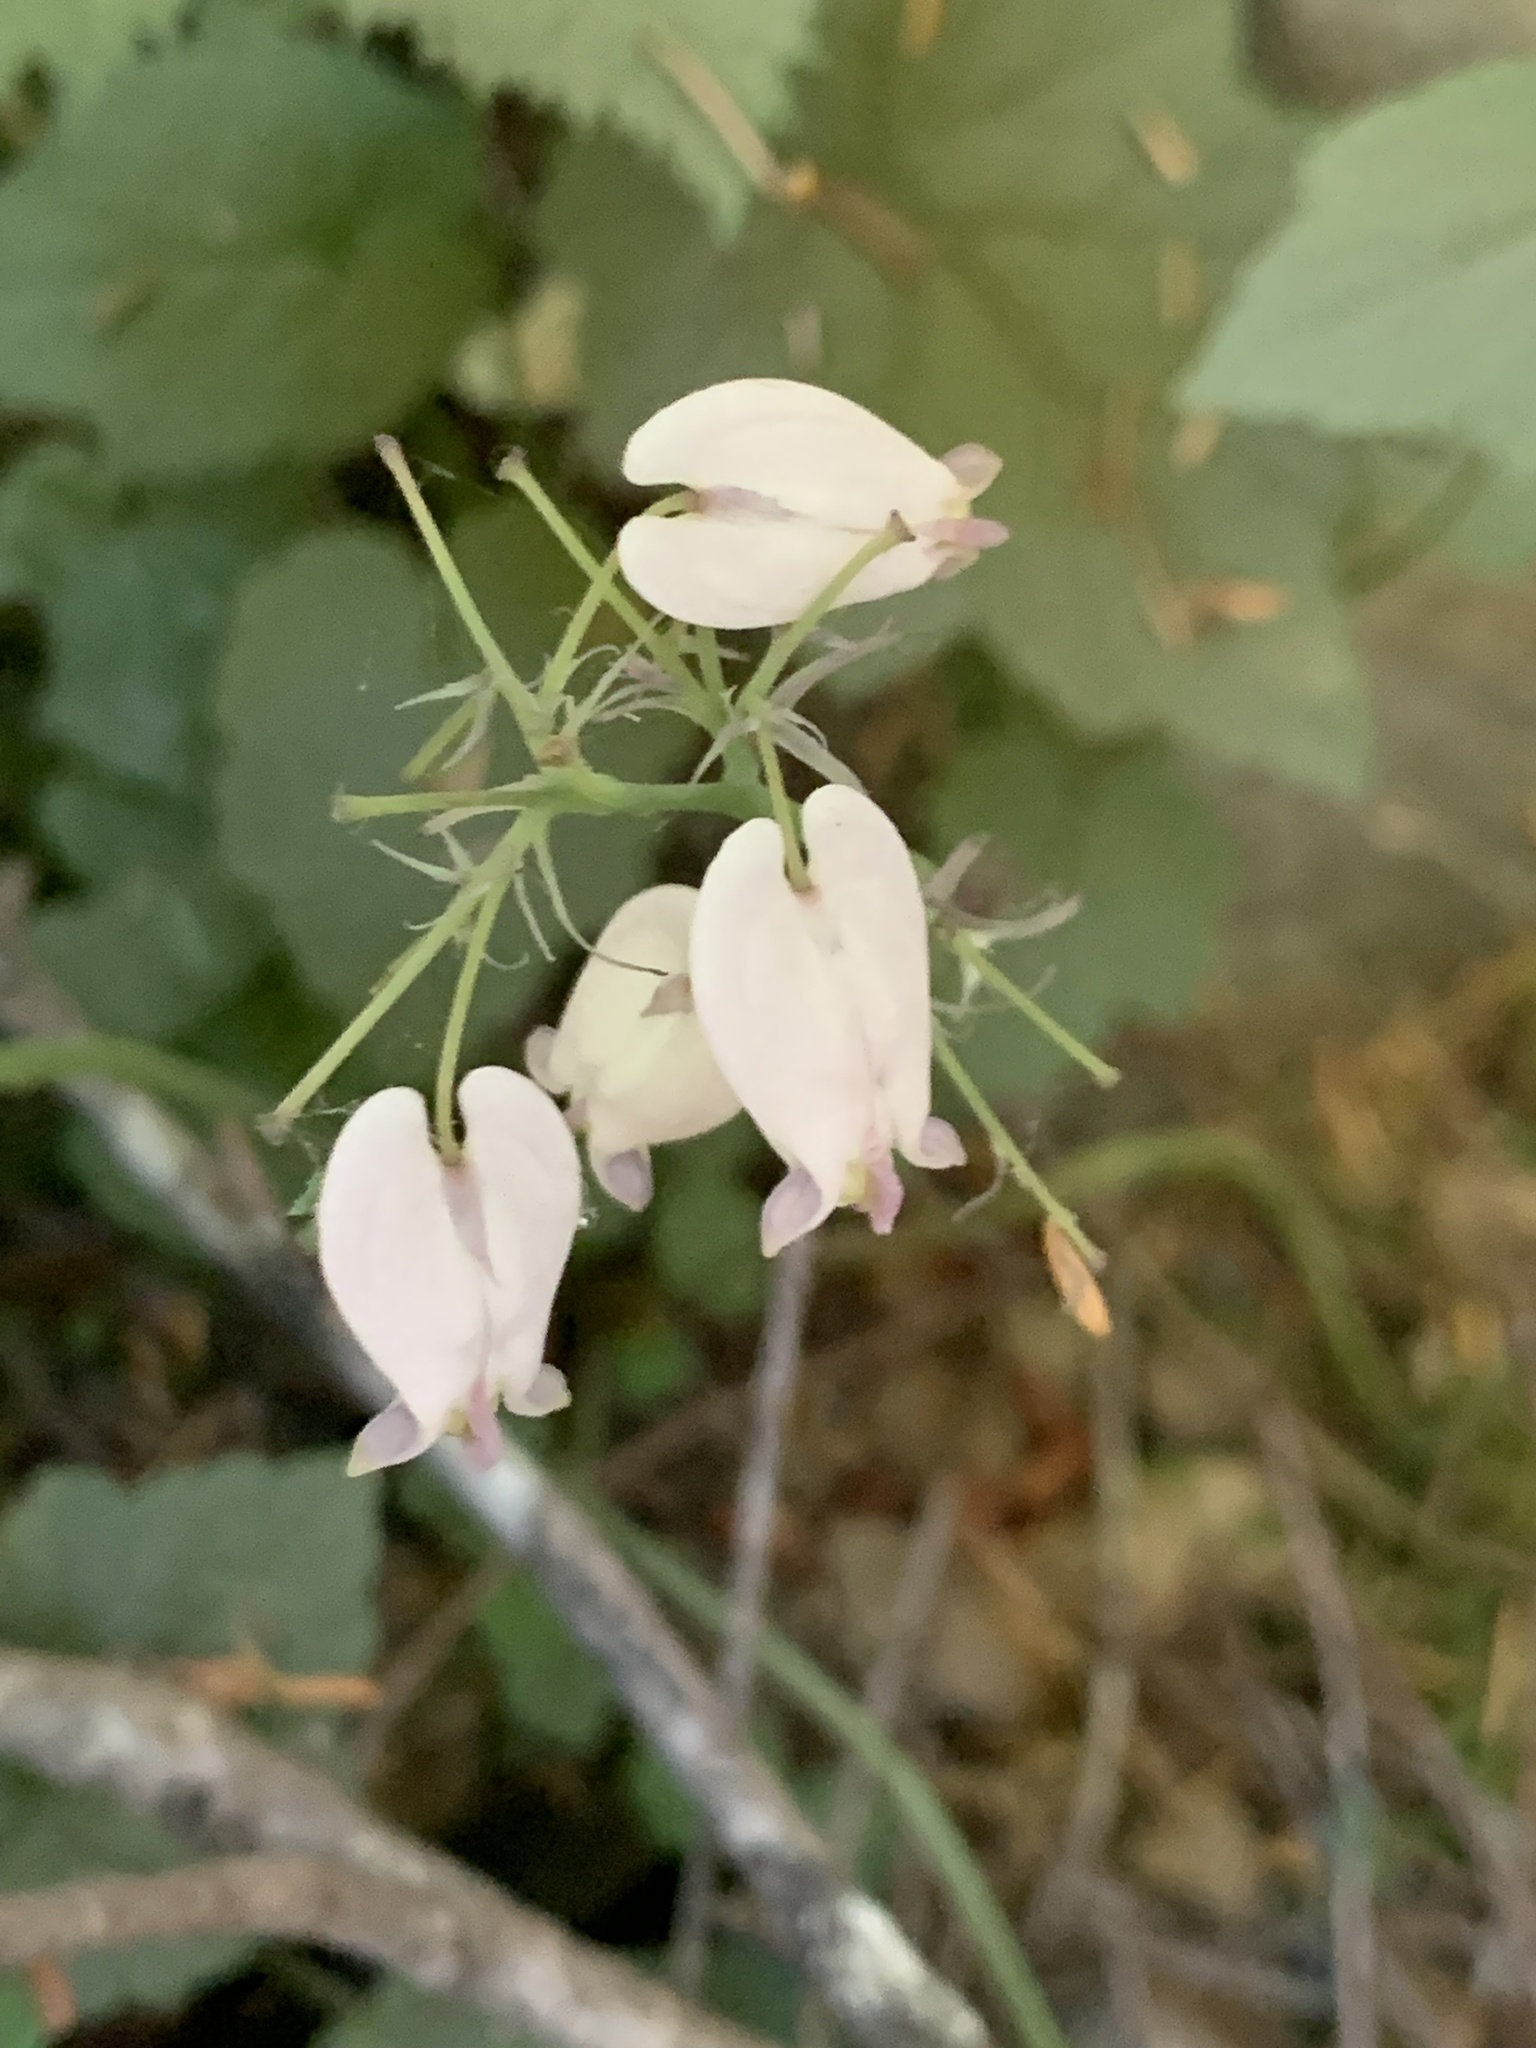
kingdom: Plantae
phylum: Tracheophyta
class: Magnoliopsida
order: Ranunculales
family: Papaveraceae
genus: Dicentra
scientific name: Dicentra formosa
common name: Bleeding-heart
